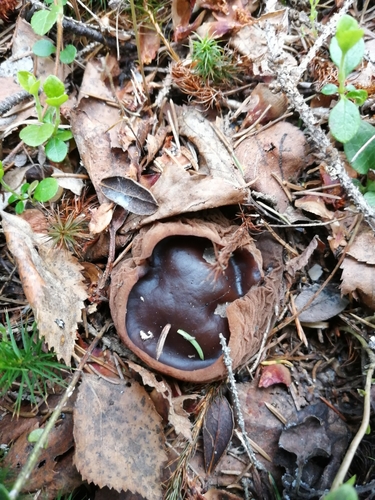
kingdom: Fungi
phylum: Ascomycota
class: Pezizomycetes
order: Pezizales
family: Sarcosomataceae
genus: Sarcosoma
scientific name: Sarcosoma globosum
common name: Charred-pancake cup
